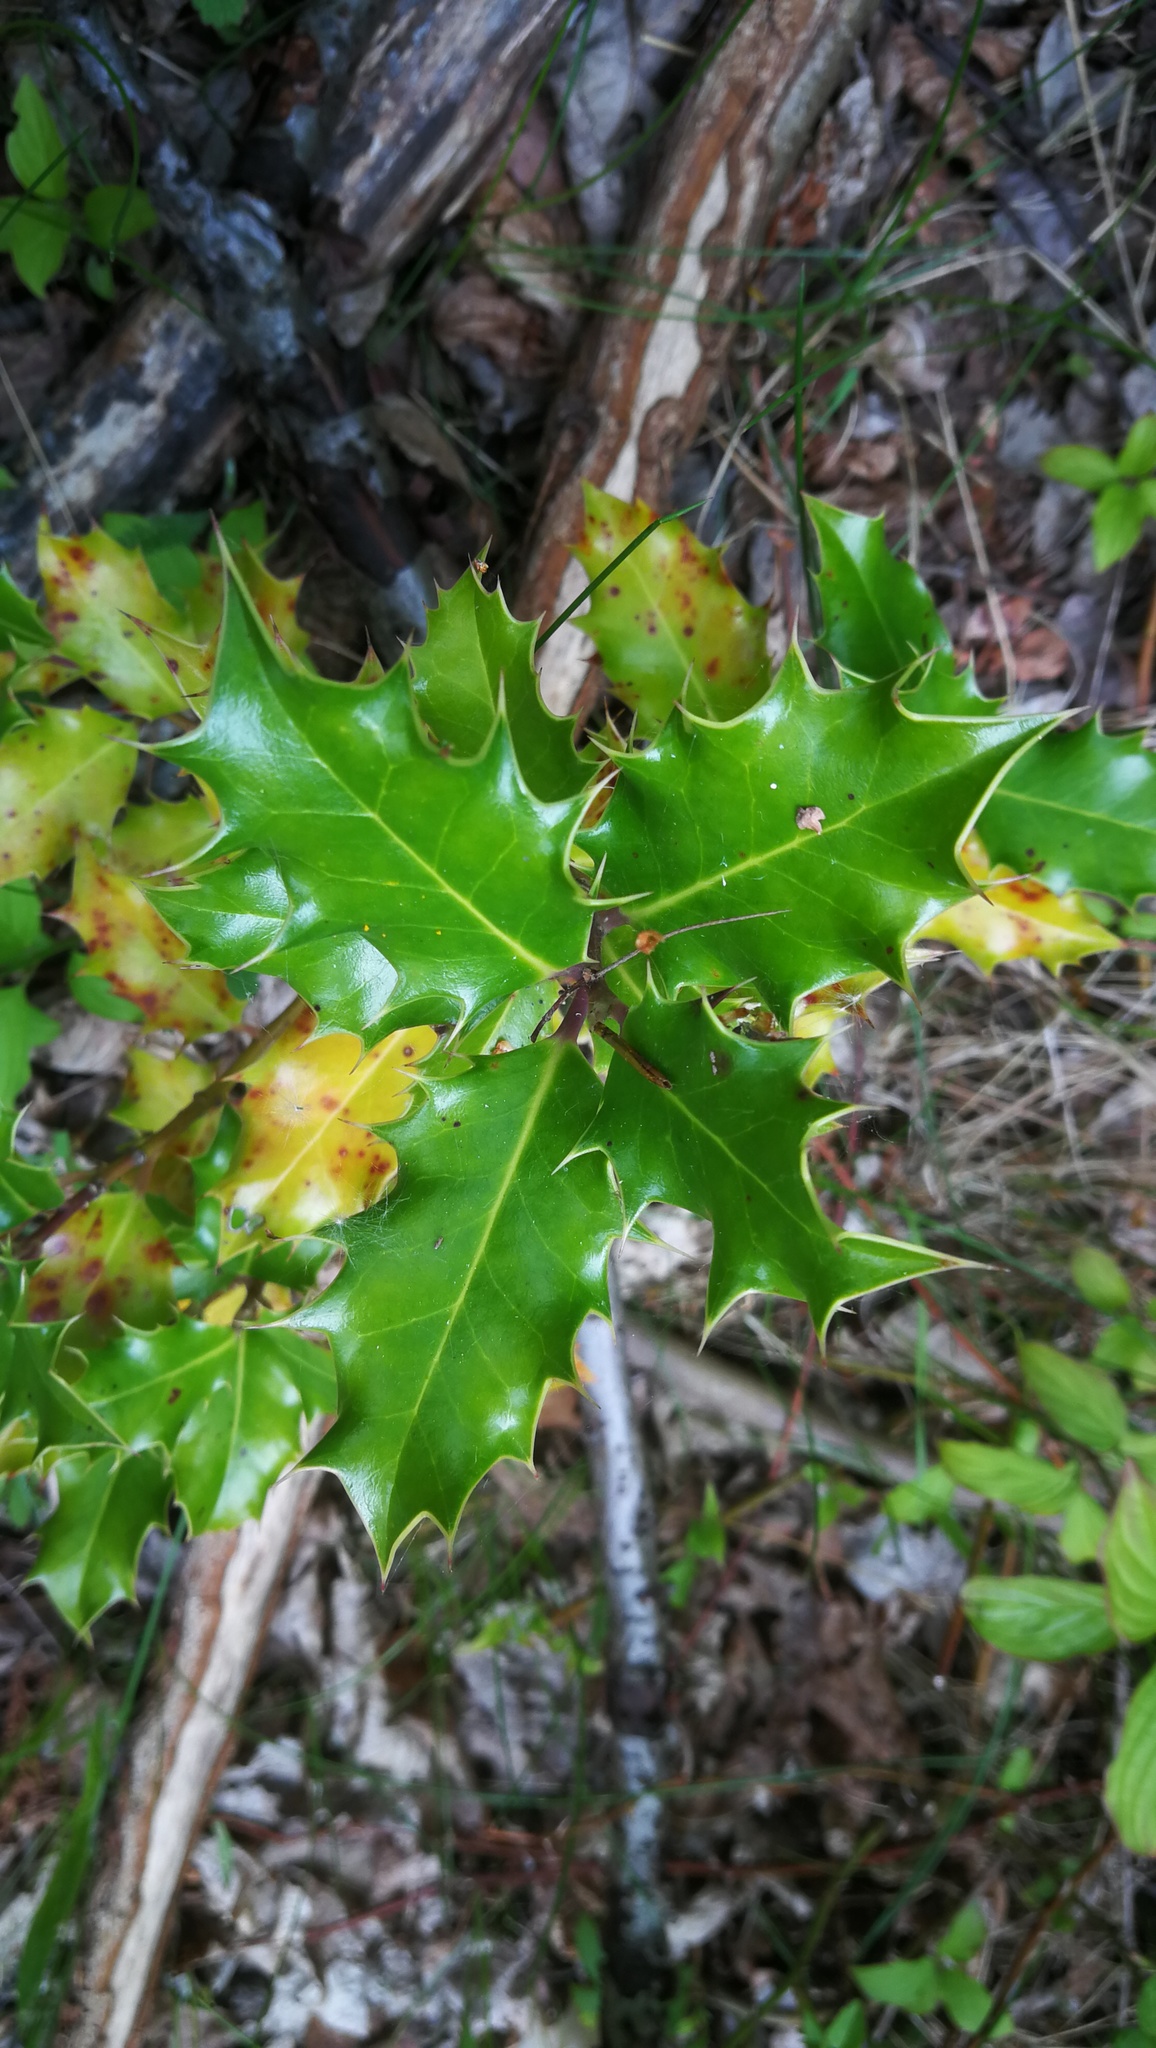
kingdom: Plantae
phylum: Tracheophyta
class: Magnoliopsida
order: Aquifoliales
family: Aquifoliaceae
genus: Ilex
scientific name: Ilex aquifolium
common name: English holly
